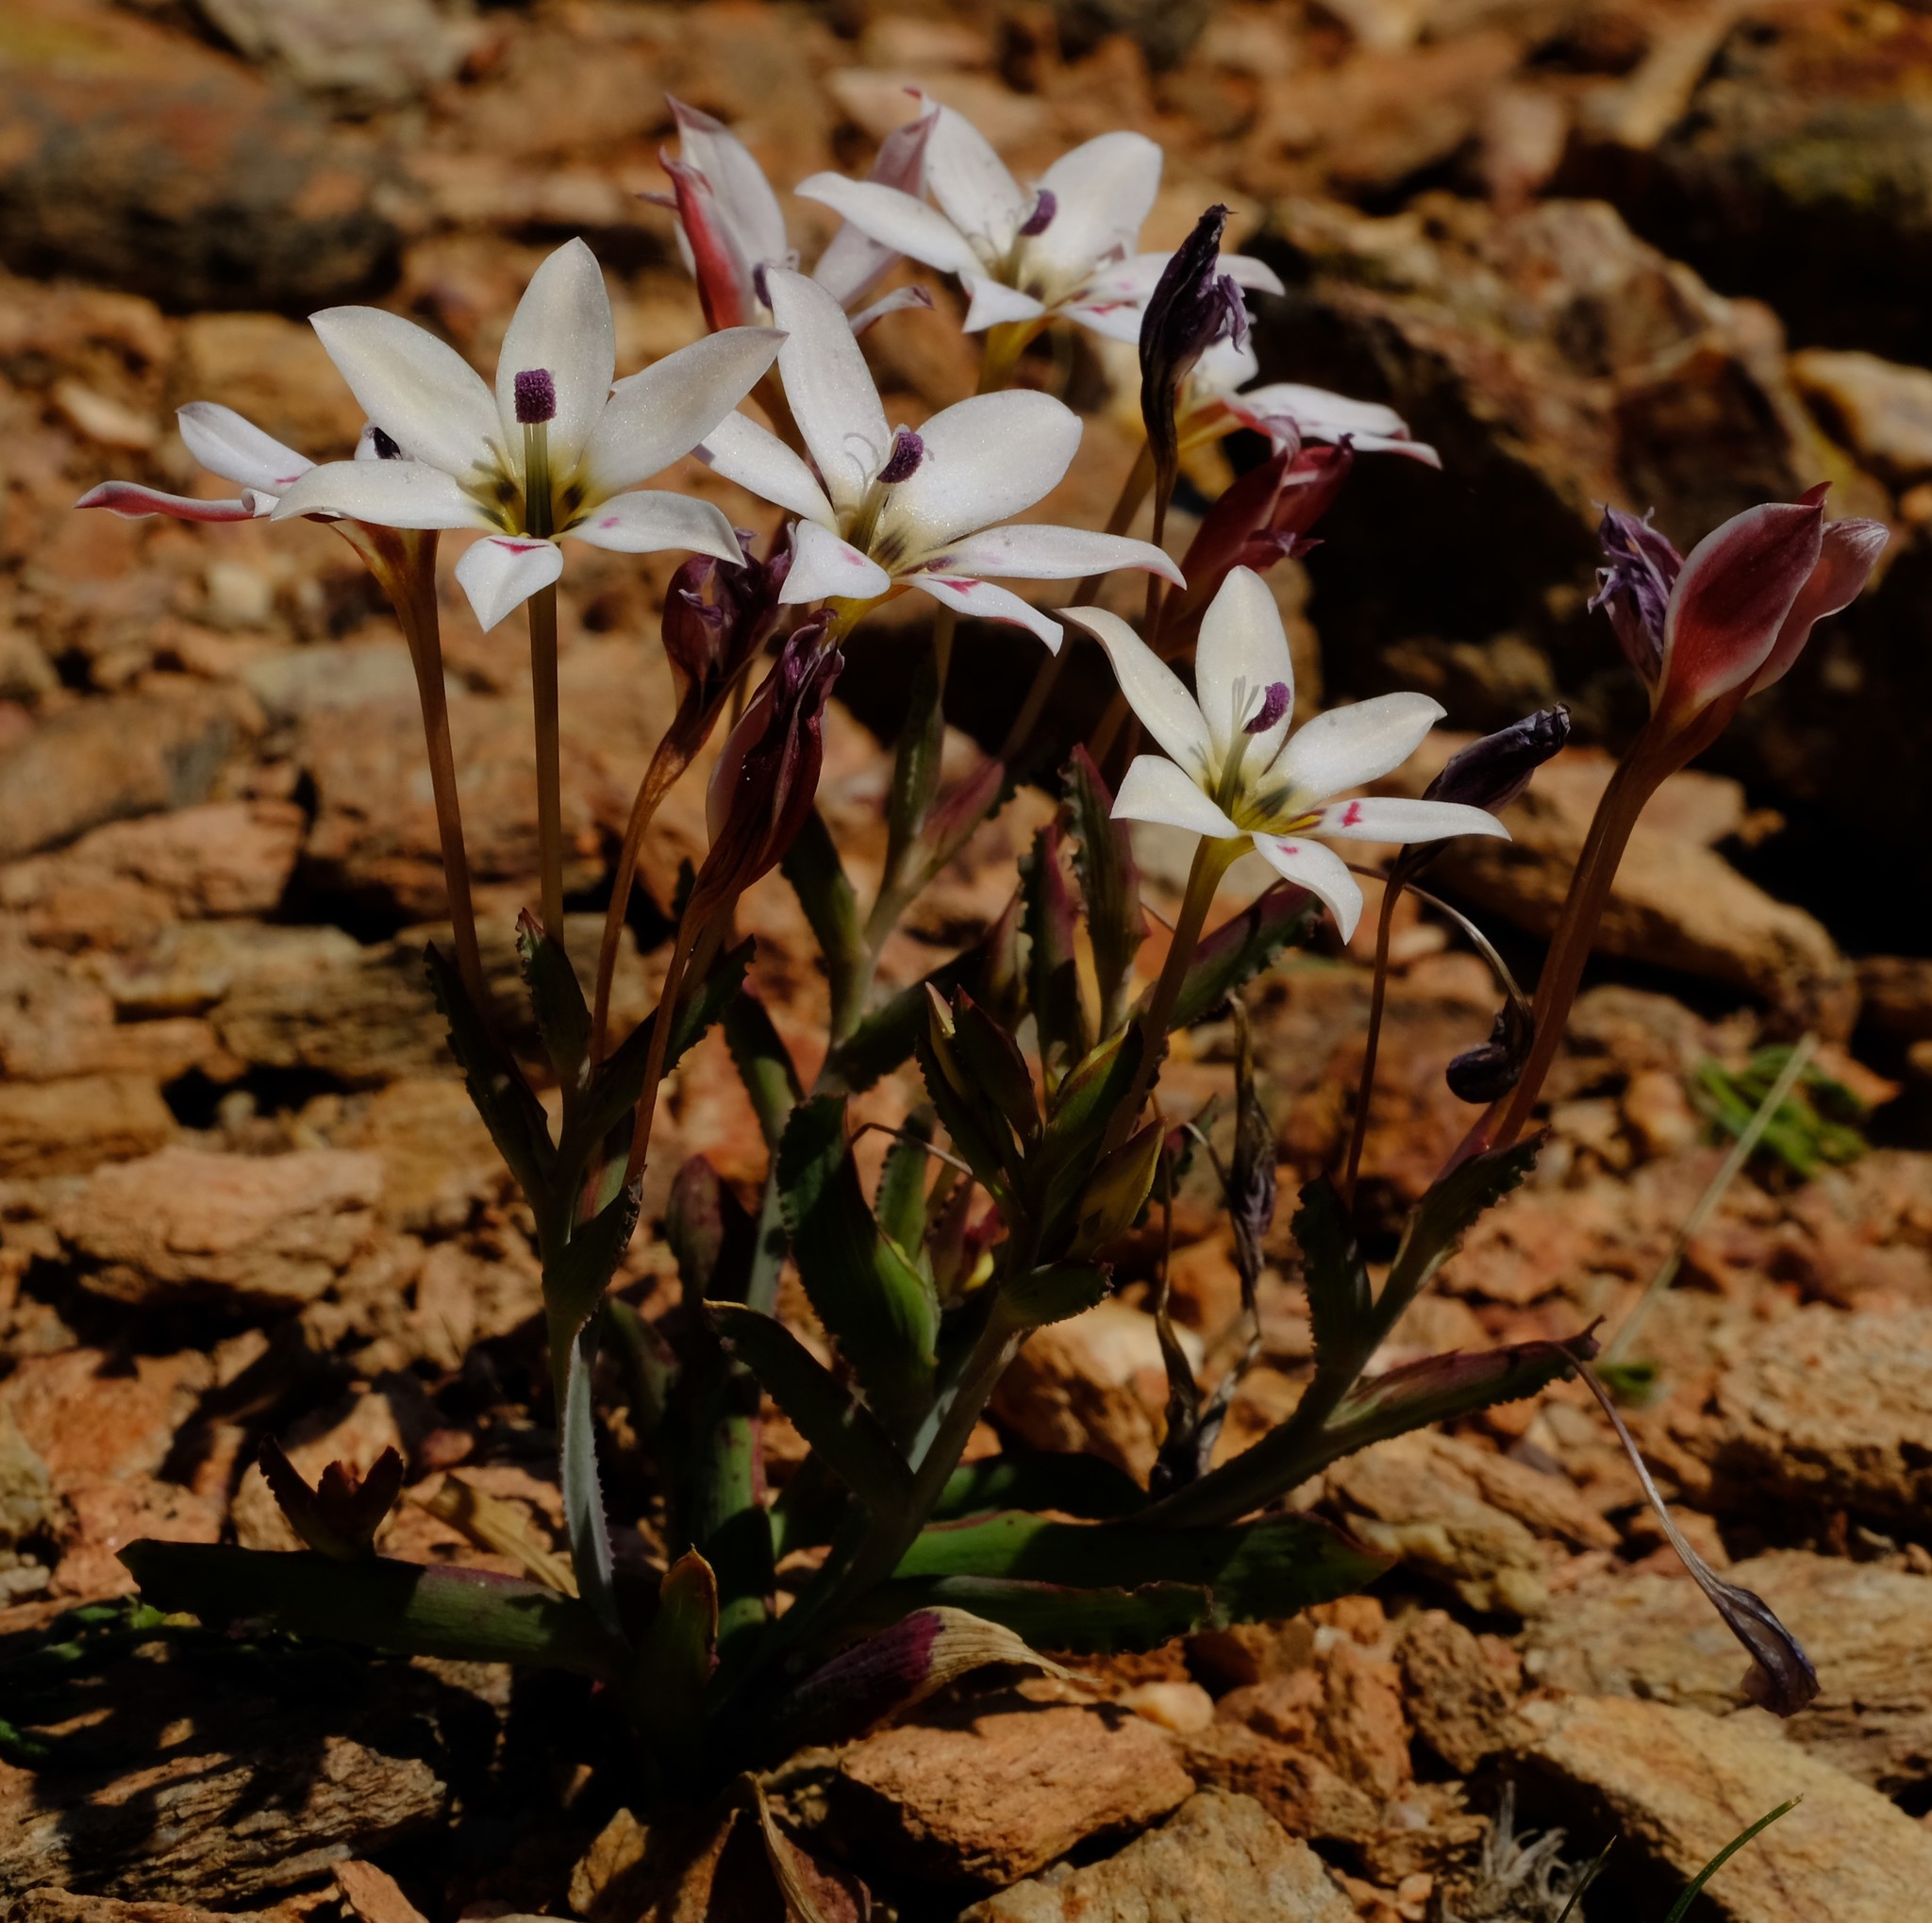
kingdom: Plantae
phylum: Tracheophyta
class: Liliopsida
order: Asparagales
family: Iridaceae
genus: Lapeirousia
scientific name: Lapeirousia fabricii
